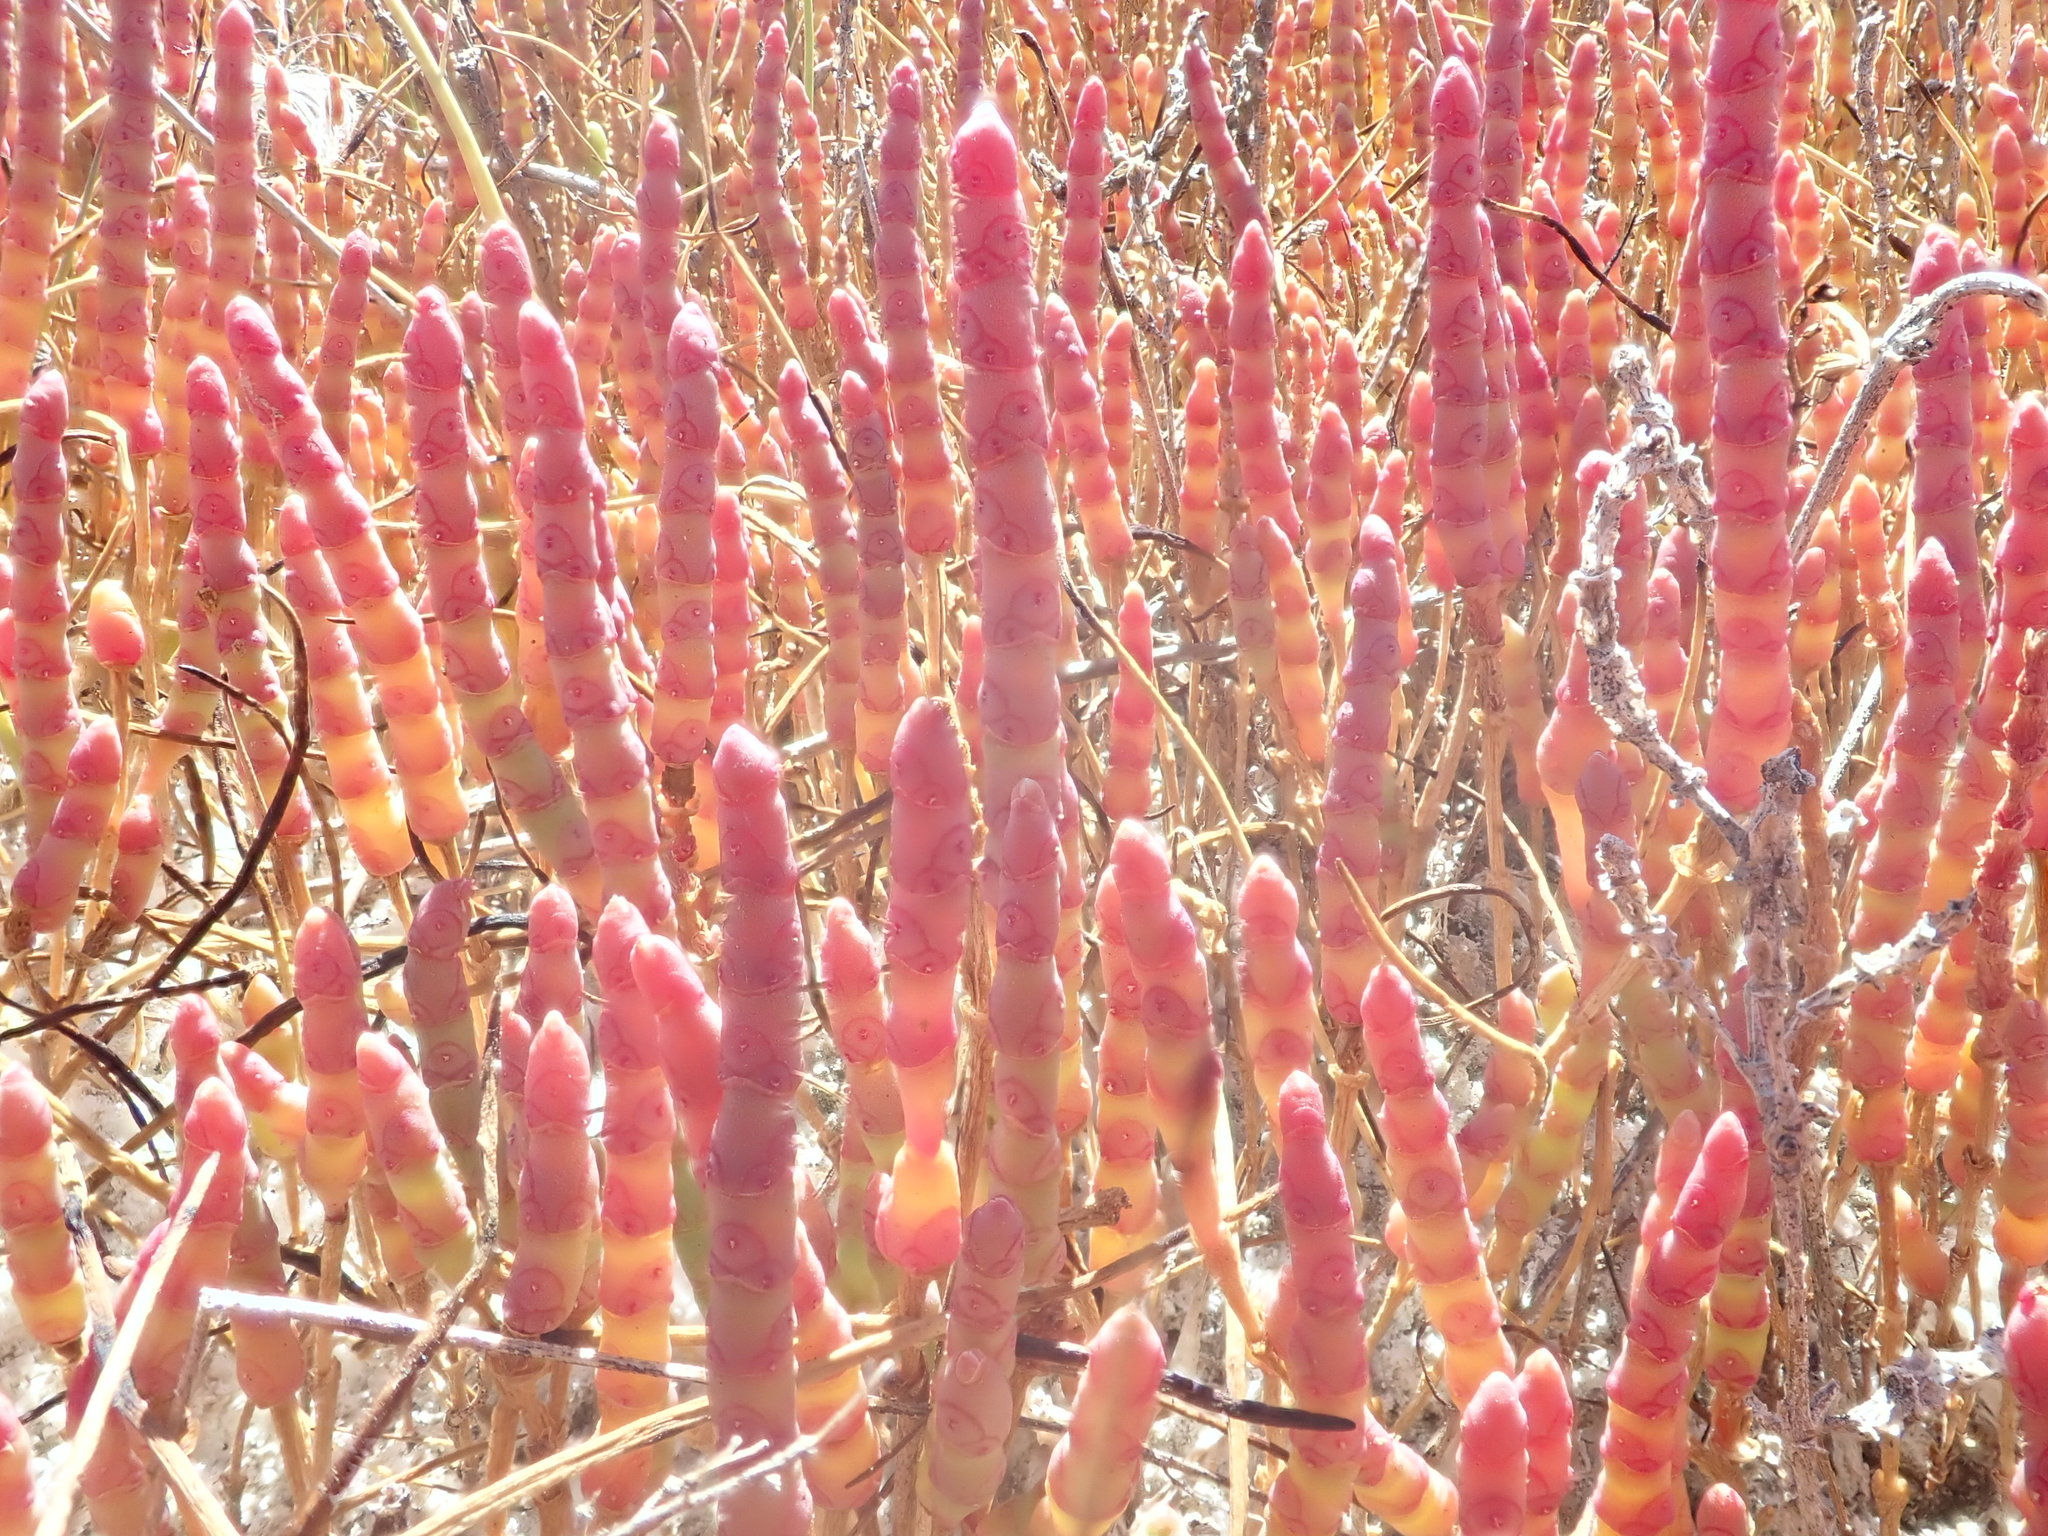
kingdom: Plantae
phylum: Tracheophyta
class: Magnoliopsida
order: Caryophyllales
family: Amaranthaceae
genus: Salicornia
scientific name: Salicornia rubra
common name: Red glasswort
